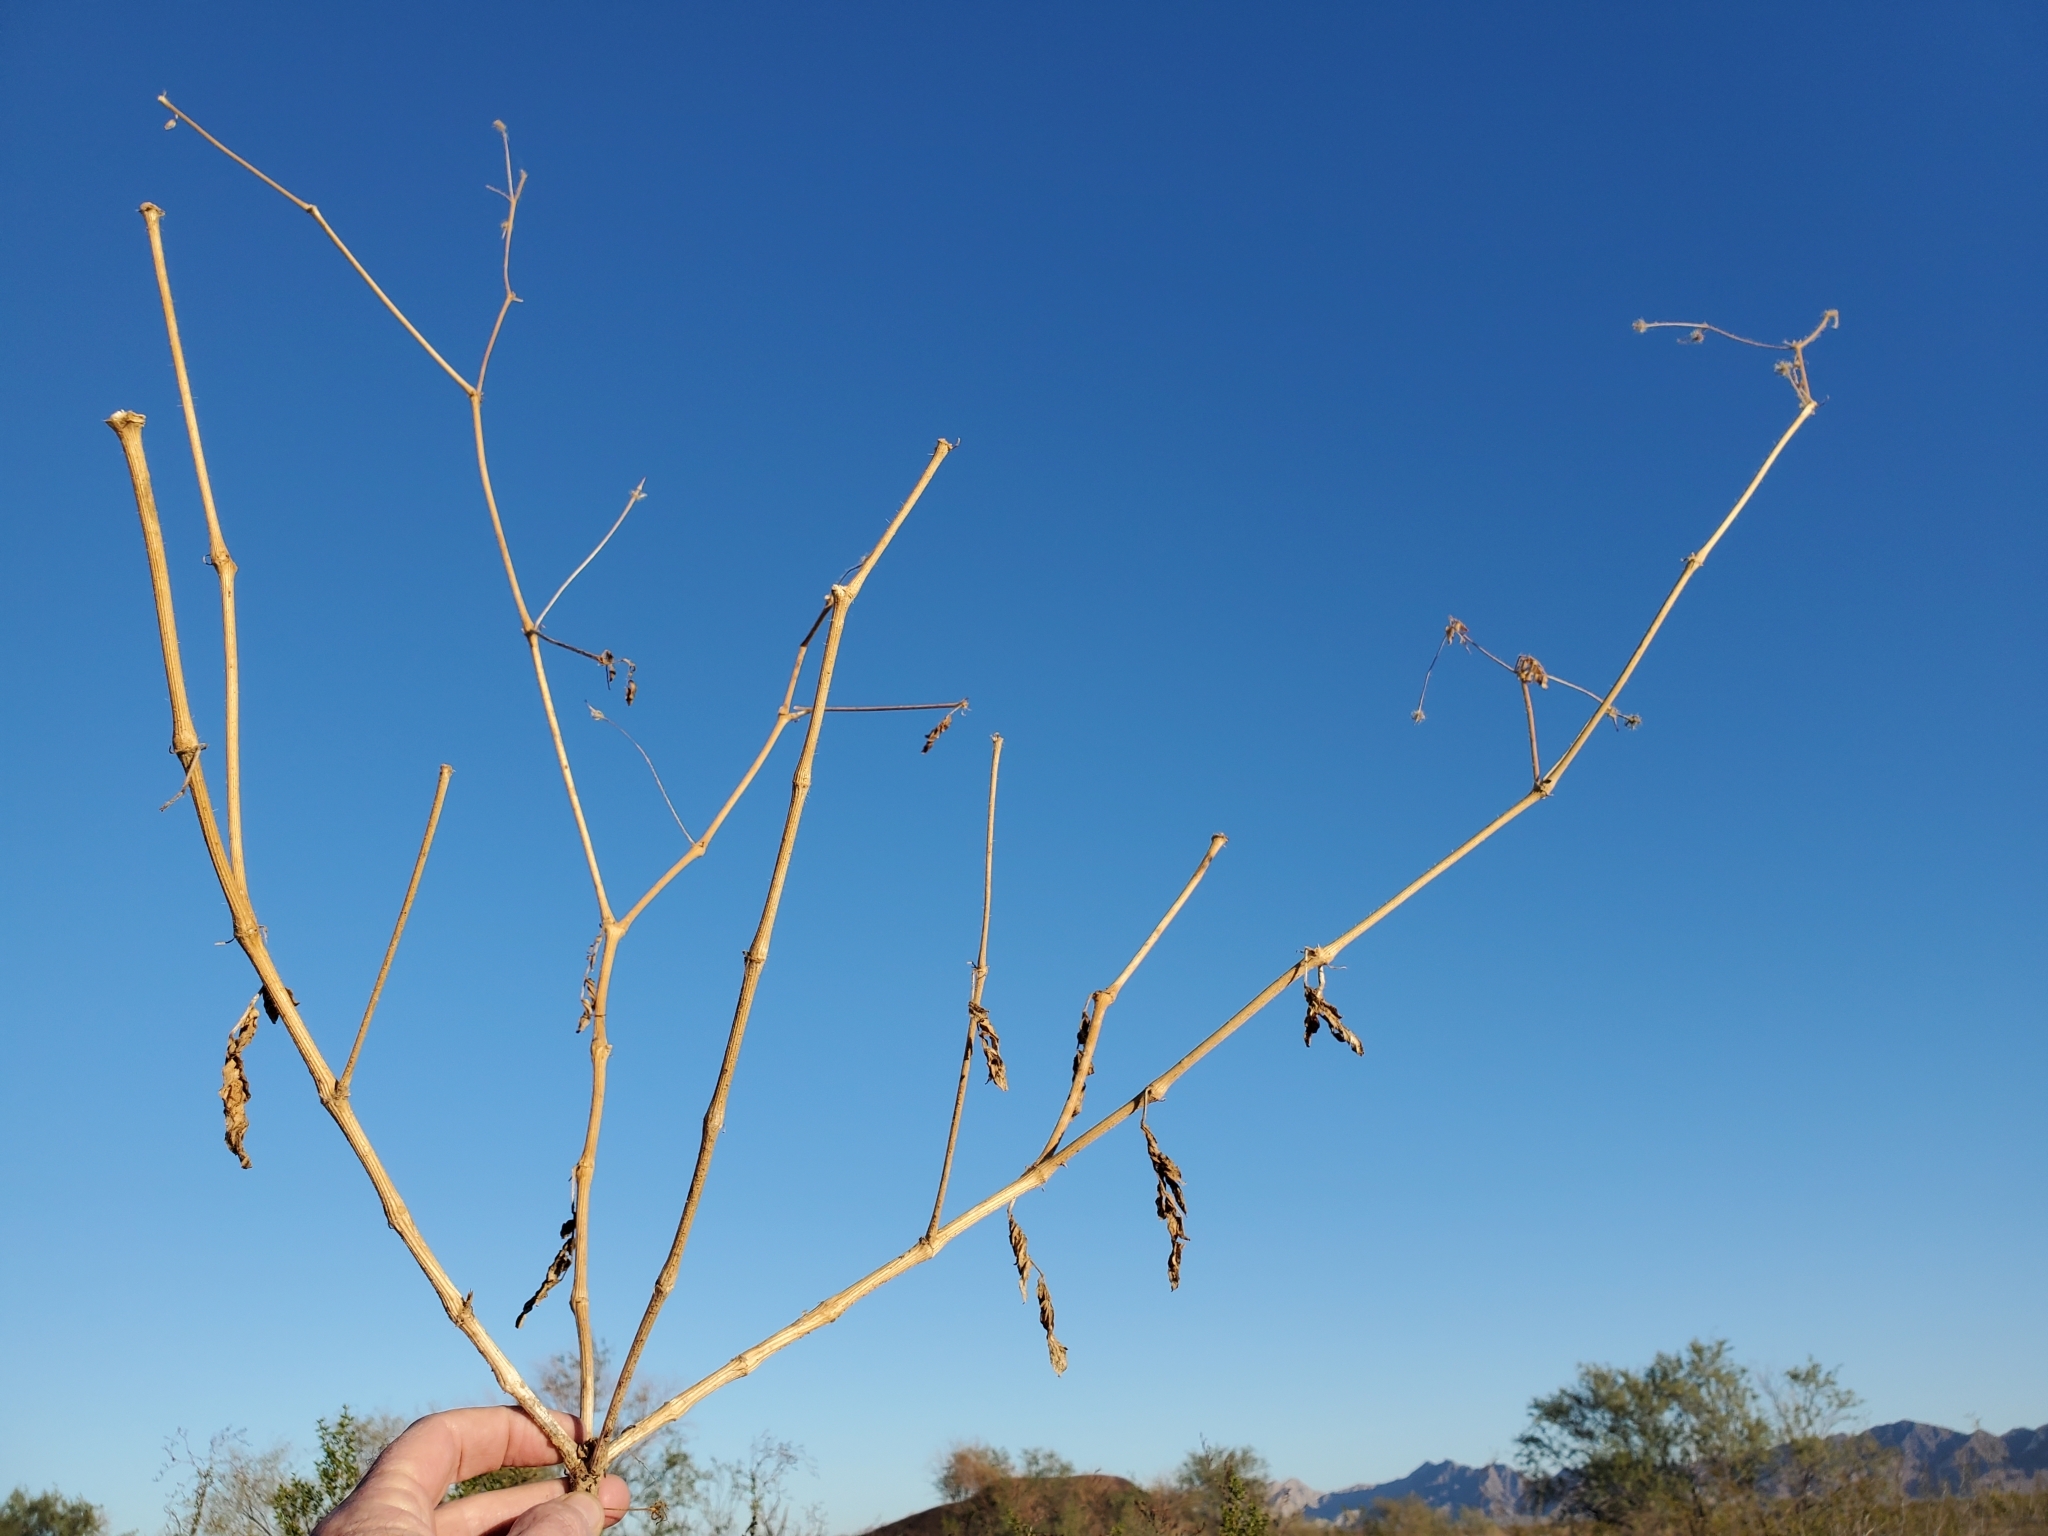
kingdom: Plantae
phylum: Tracheophyta
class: Magnoliopsida
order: Zygophyllales
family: Zygophyllaceae
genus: Kallstroemia
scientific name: Kallstroemia grandiflora
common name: Arizona-poppy
